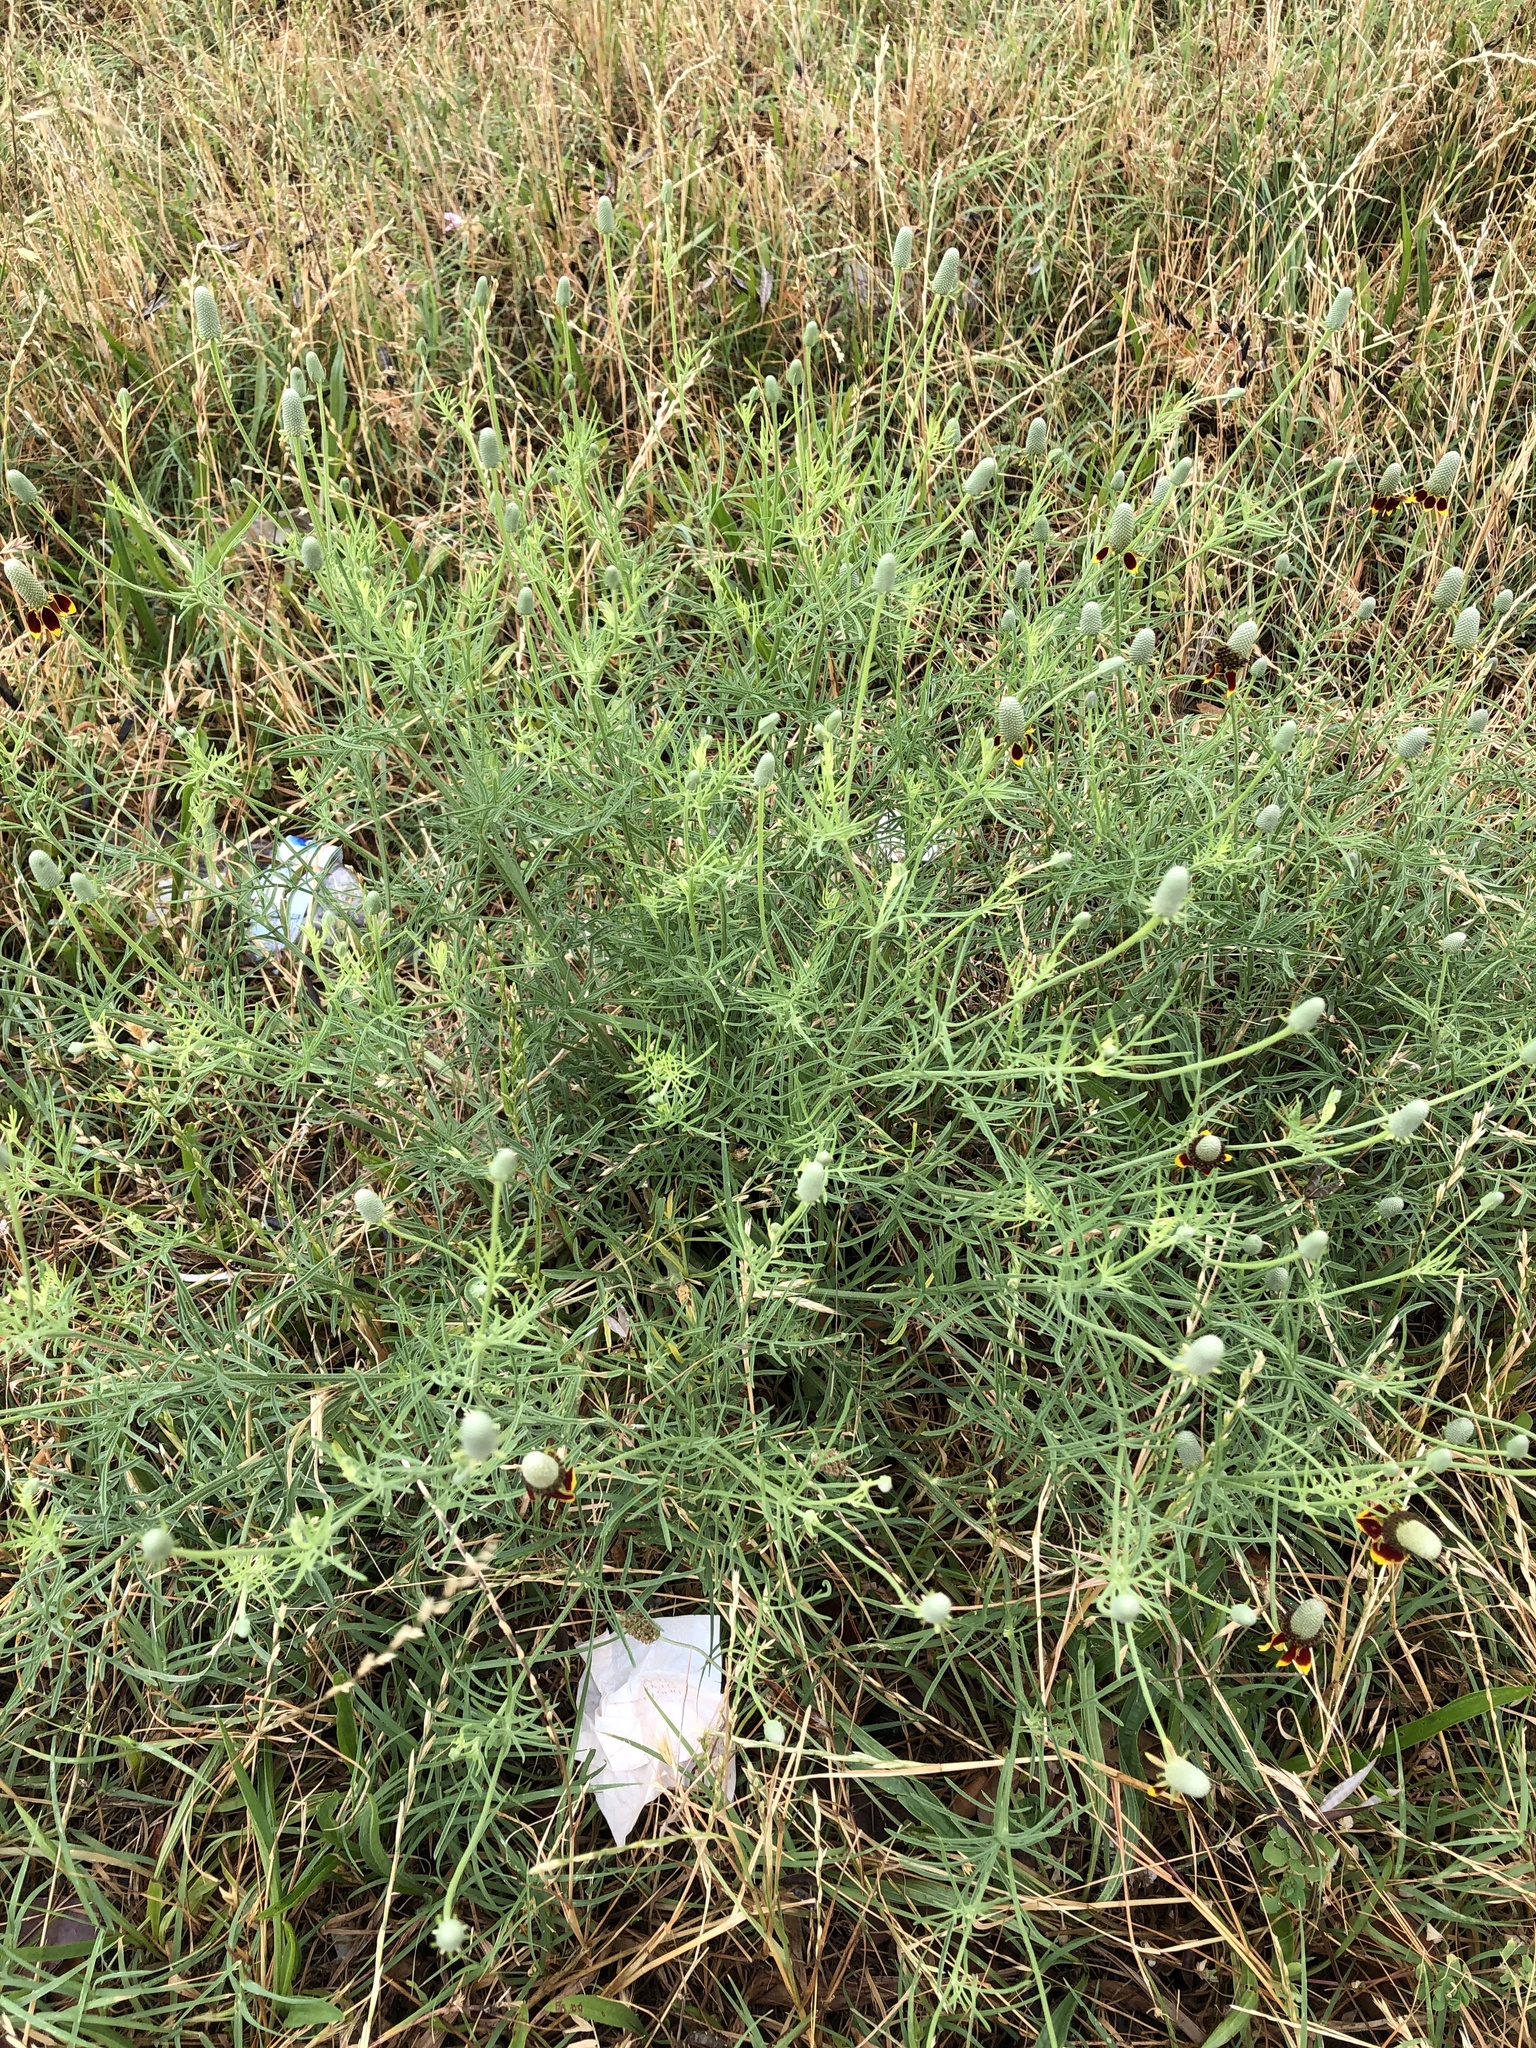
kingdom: Plantae
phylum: Tracheophyta
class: Magnoliopsida
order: Asterales
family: Asteraceae
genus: Ratibida
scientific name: Ratibida columnifera
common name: Prairie coneflower
